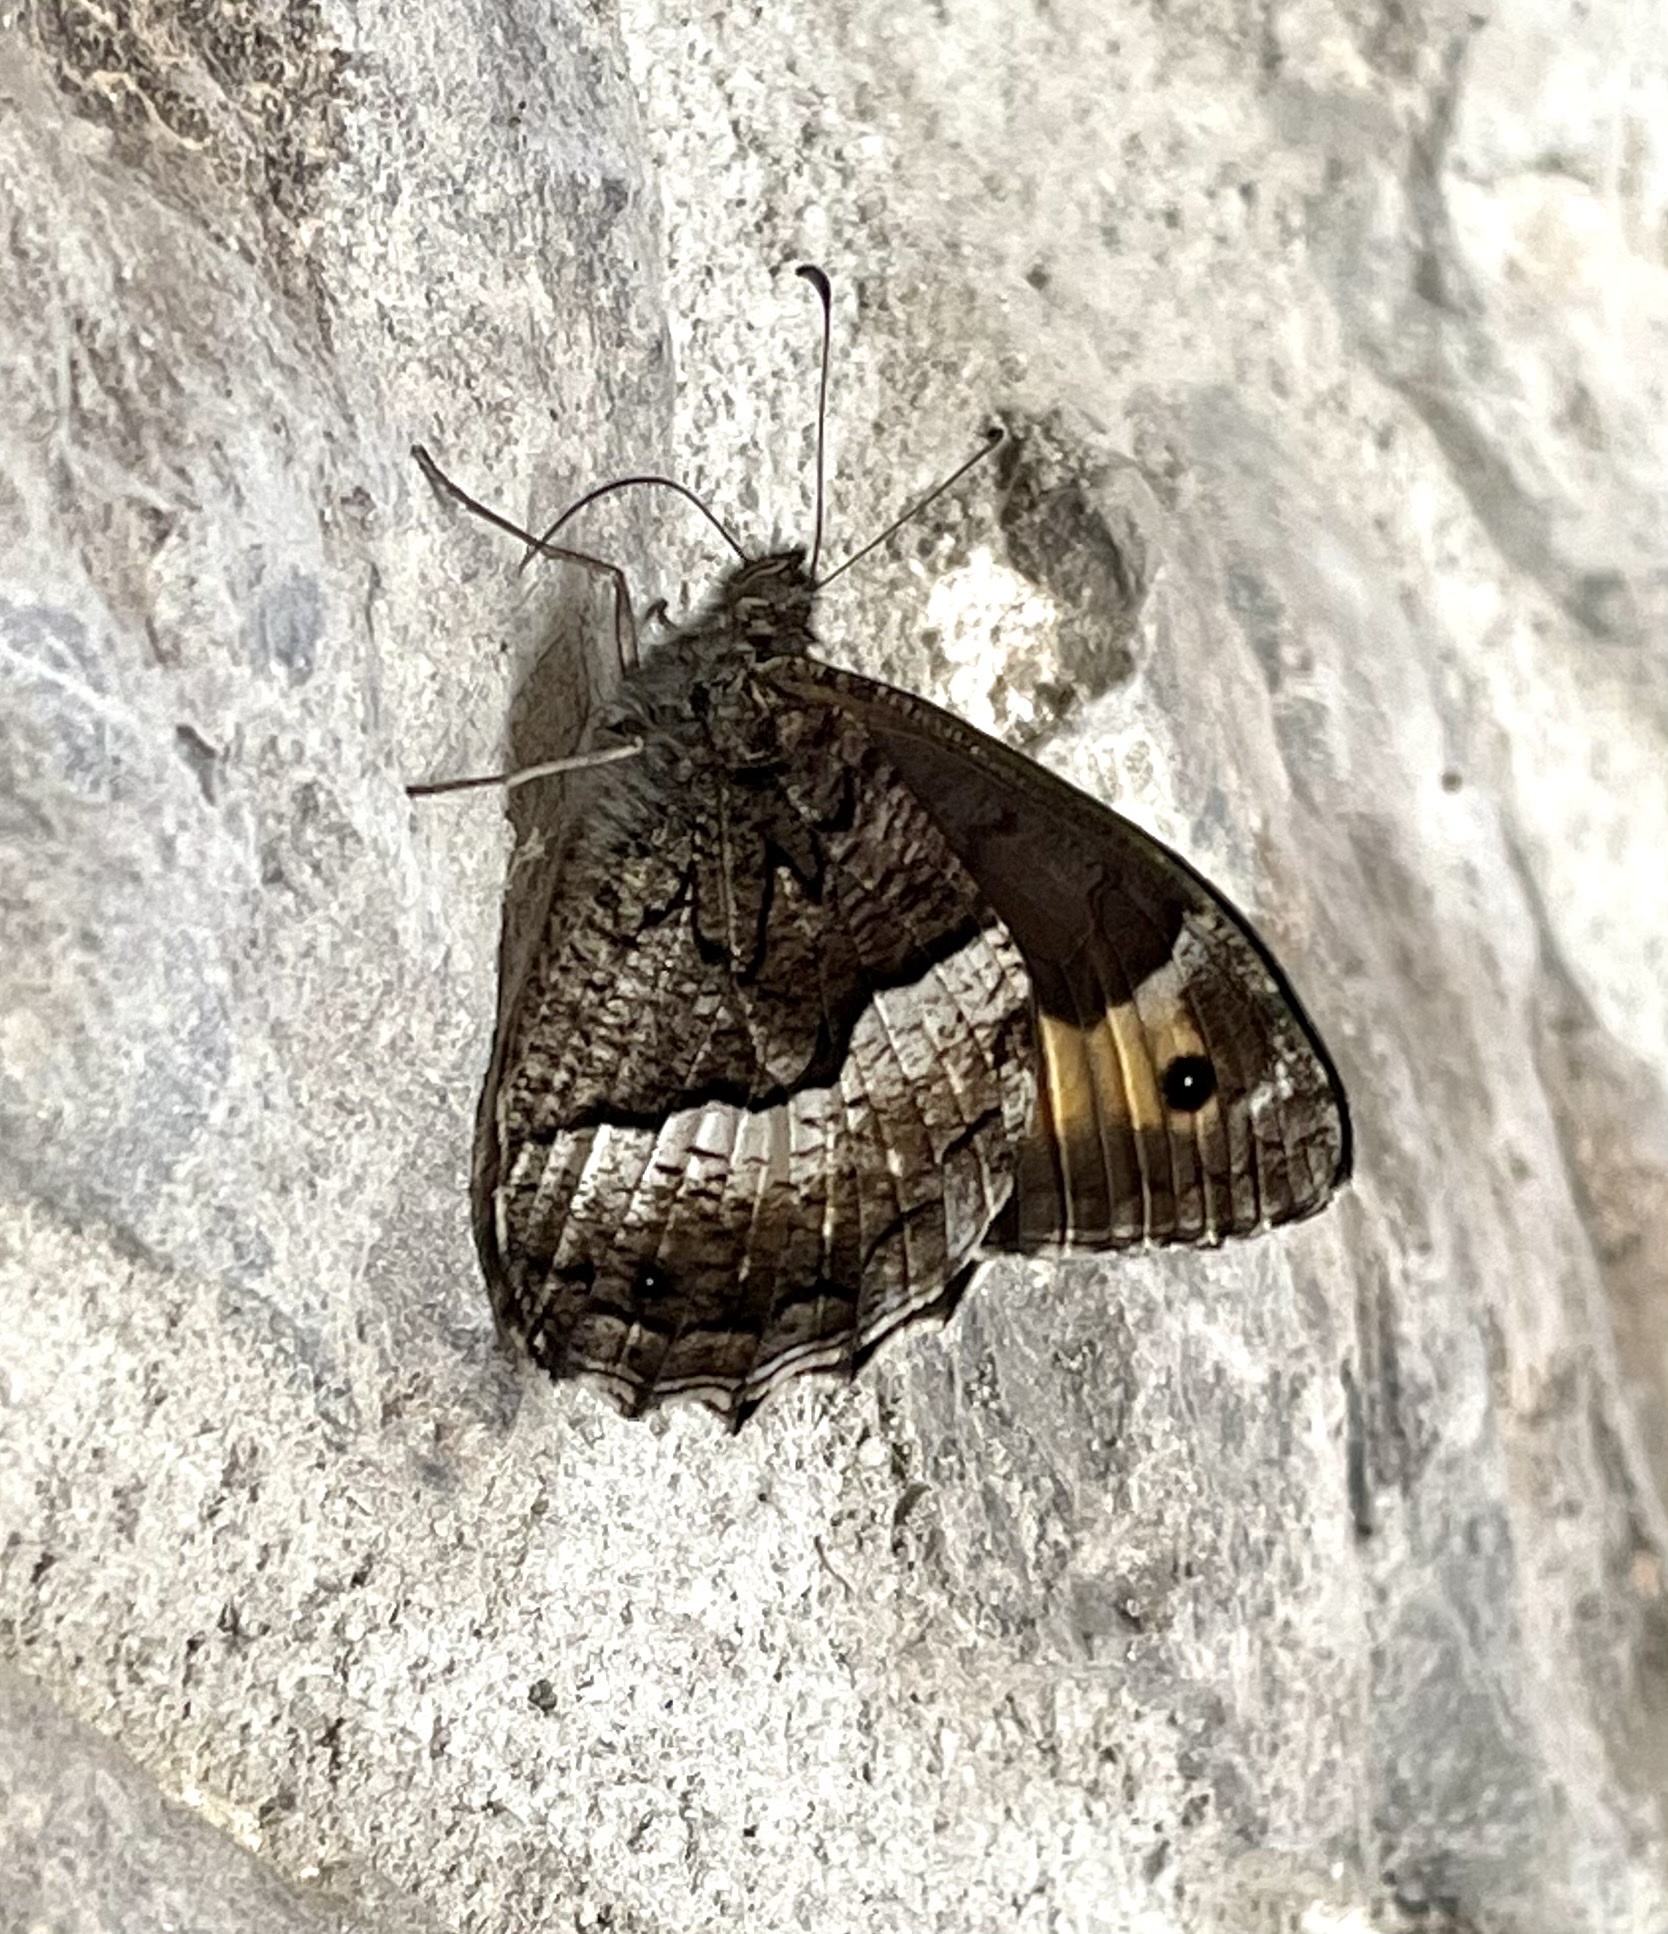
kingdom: Animalia
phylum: Arthropoda
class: Insecta
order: Lepidoptera
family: Nymphalidae
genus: Hipparchia
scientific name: Hipparchia fagi
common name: Woodland grayling
